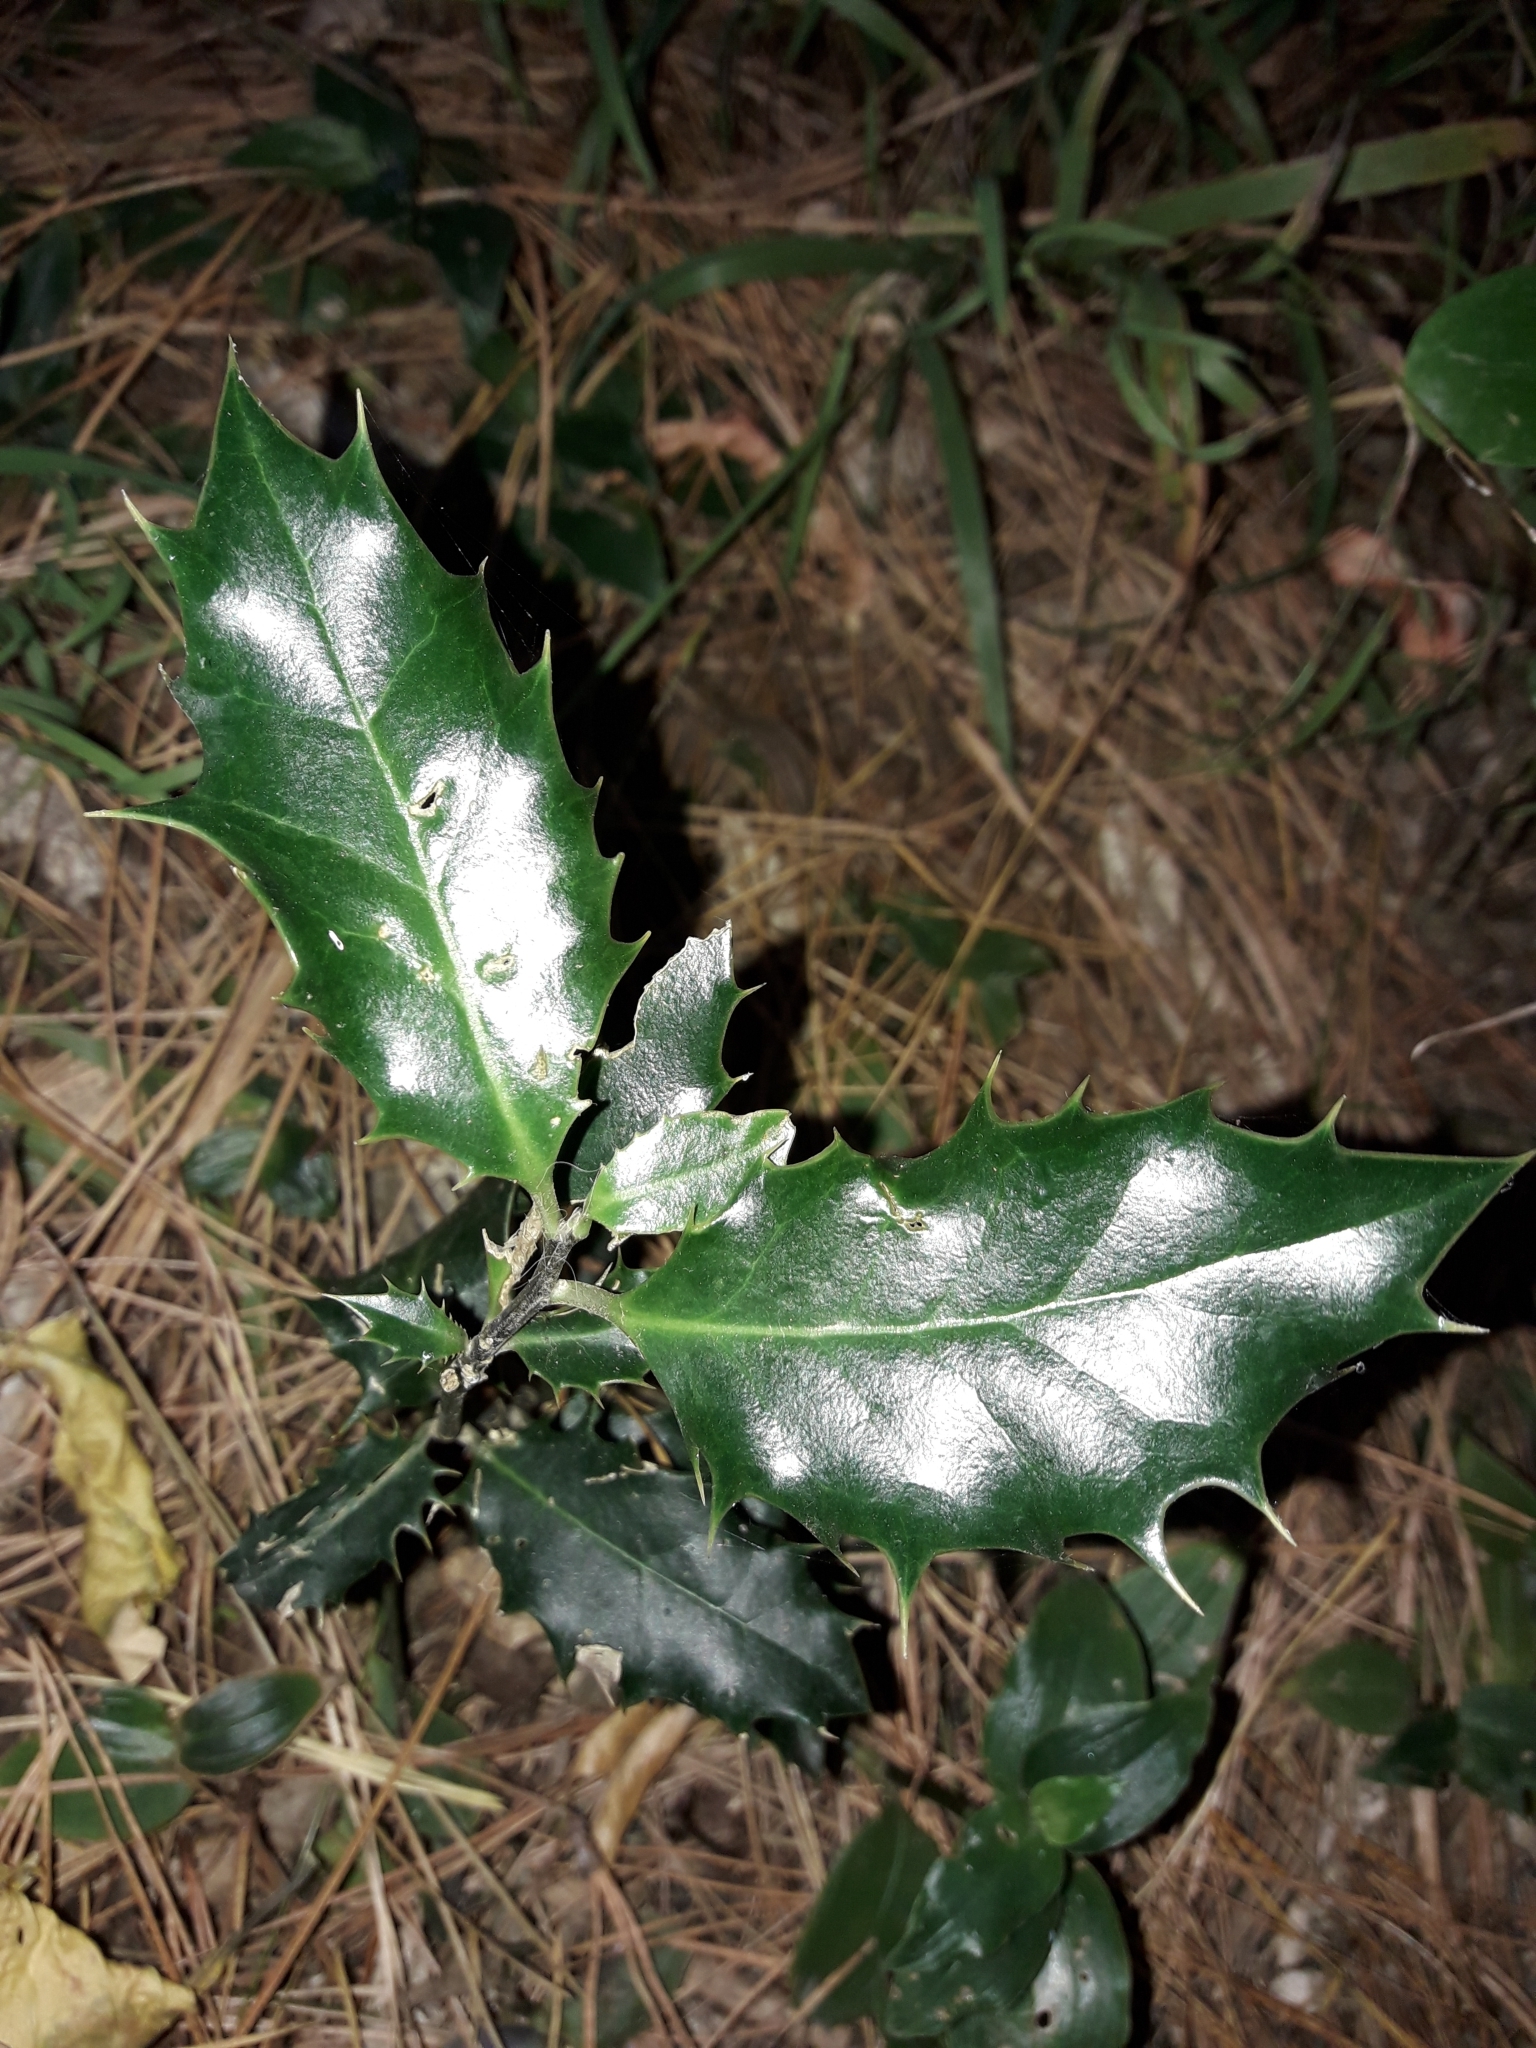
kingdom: Plantae
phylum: Tracheophyta
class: Magnoliopsida
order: Aquifoliales
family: Aquifoliaceae
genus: Ilex
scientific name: Ilex aquifolium
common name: English holly
